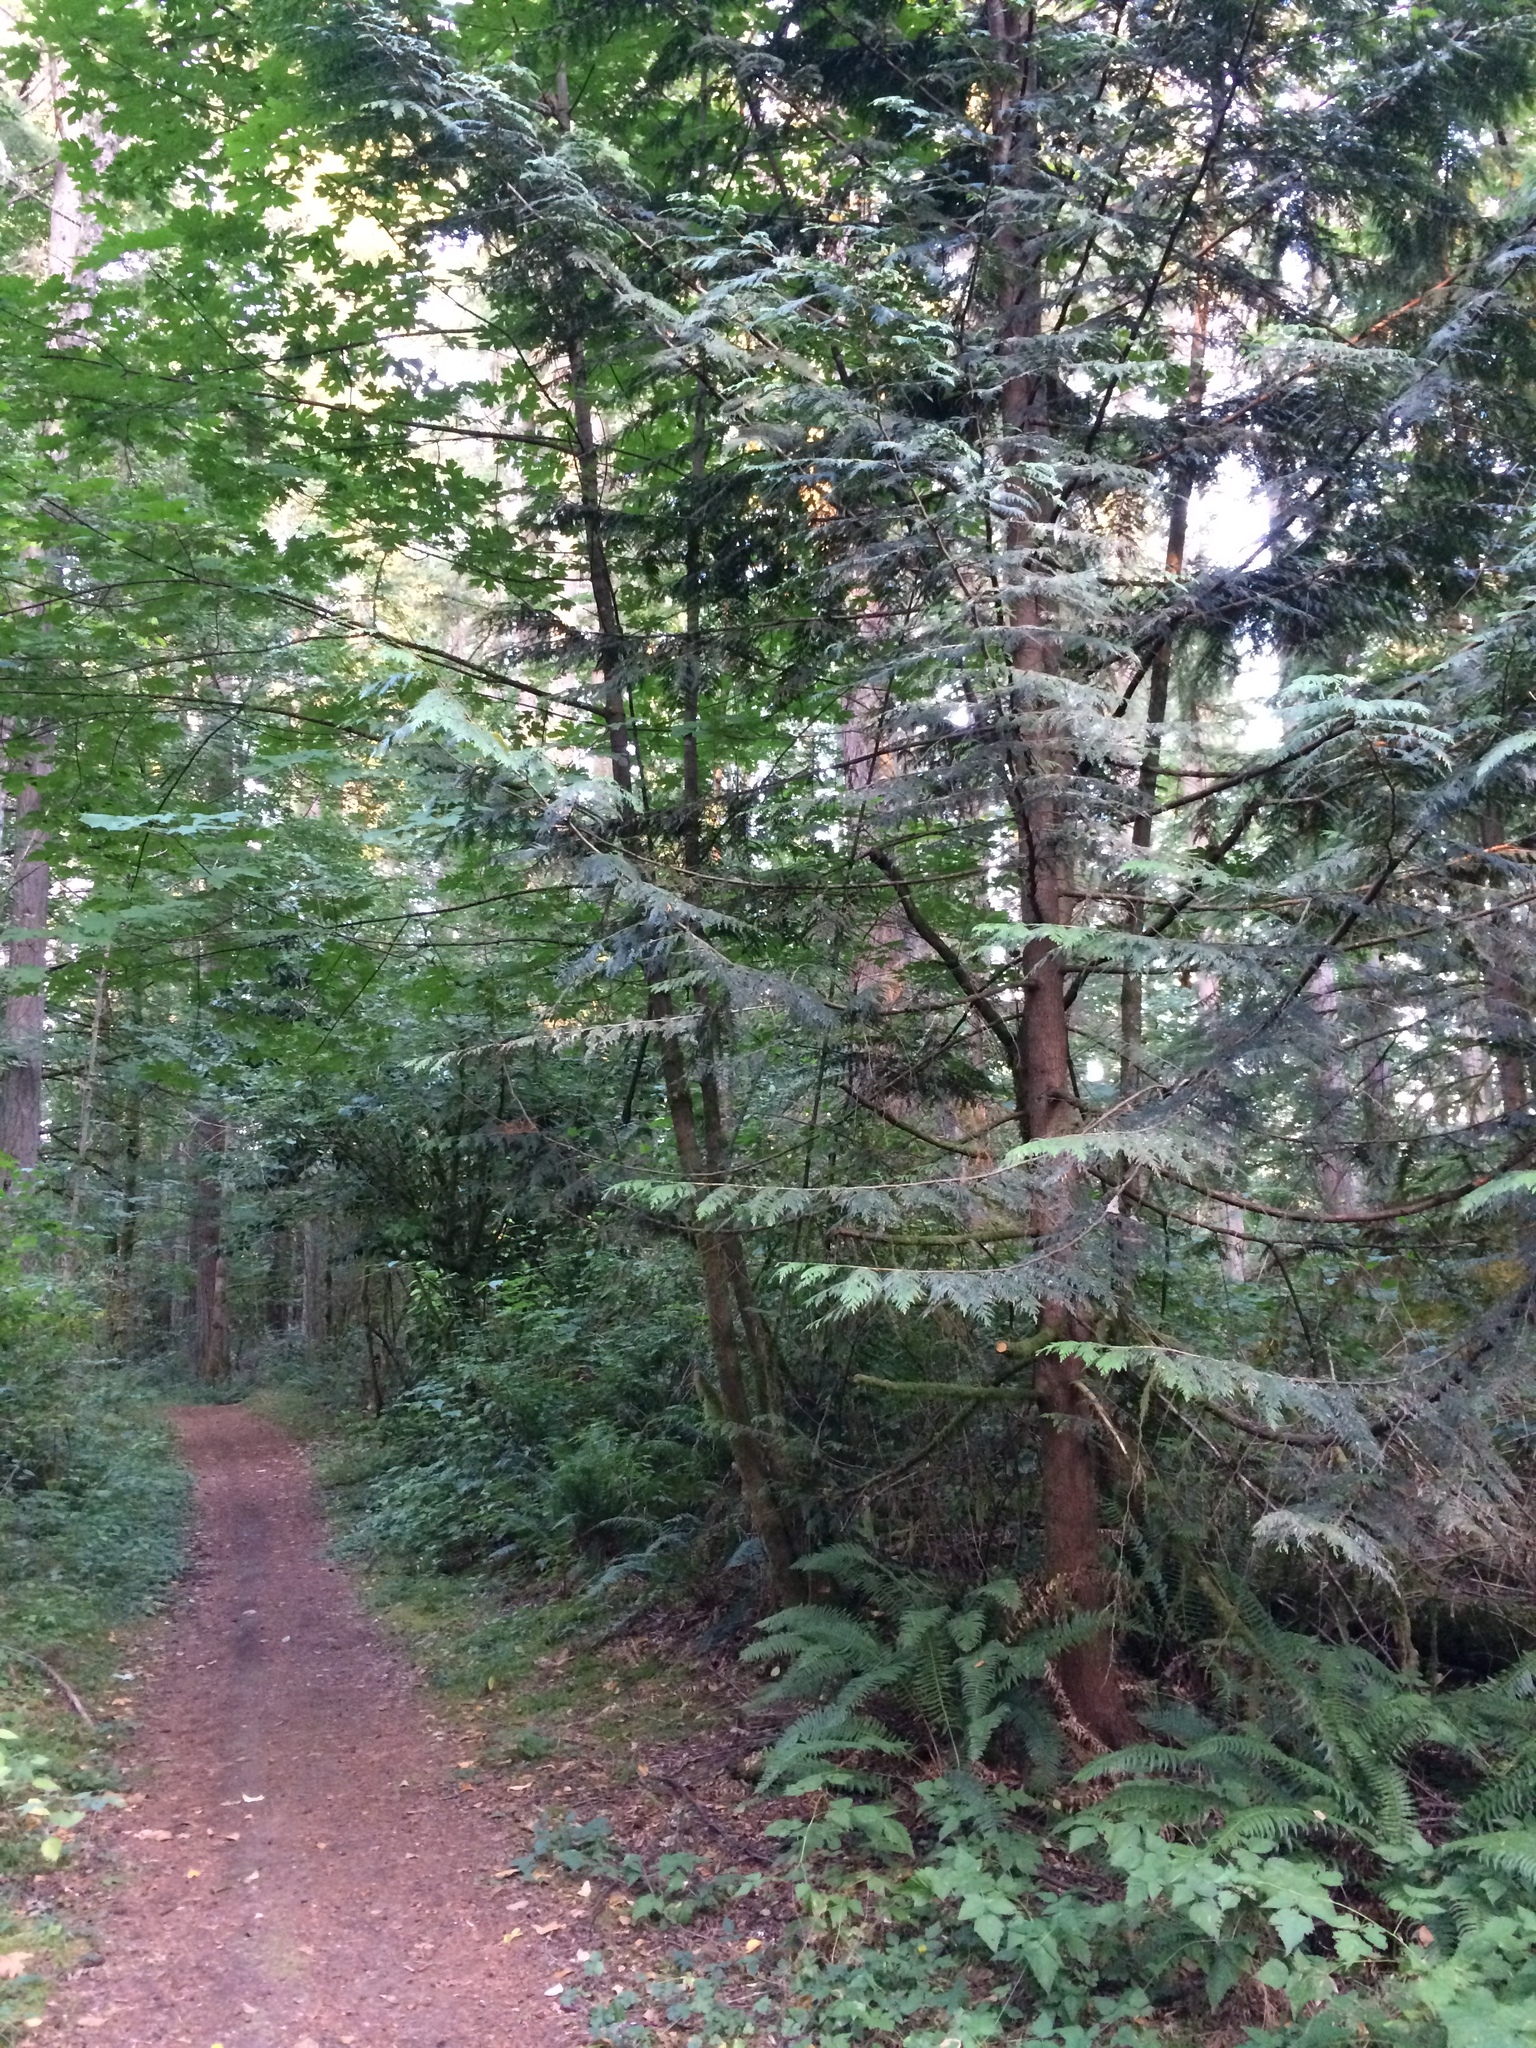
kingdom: Plantae
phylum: Tracheophyta
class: Pinopsida
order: Pinales
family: Cupressaceae
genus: Thuja
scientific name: Thuja plicata
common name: Western red-cedar
